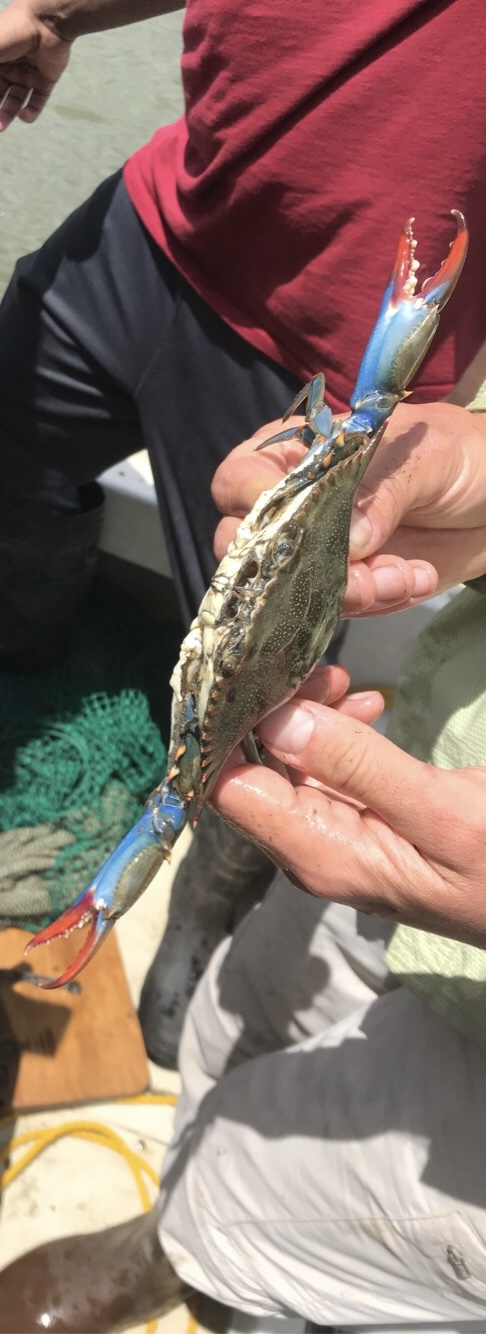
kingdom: Animalia
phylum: Arthropoda
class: Malacostraca
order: Decapoda
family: Portunidae
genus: Callinectes
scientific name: Callinectes sapidus
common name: Blue crab
